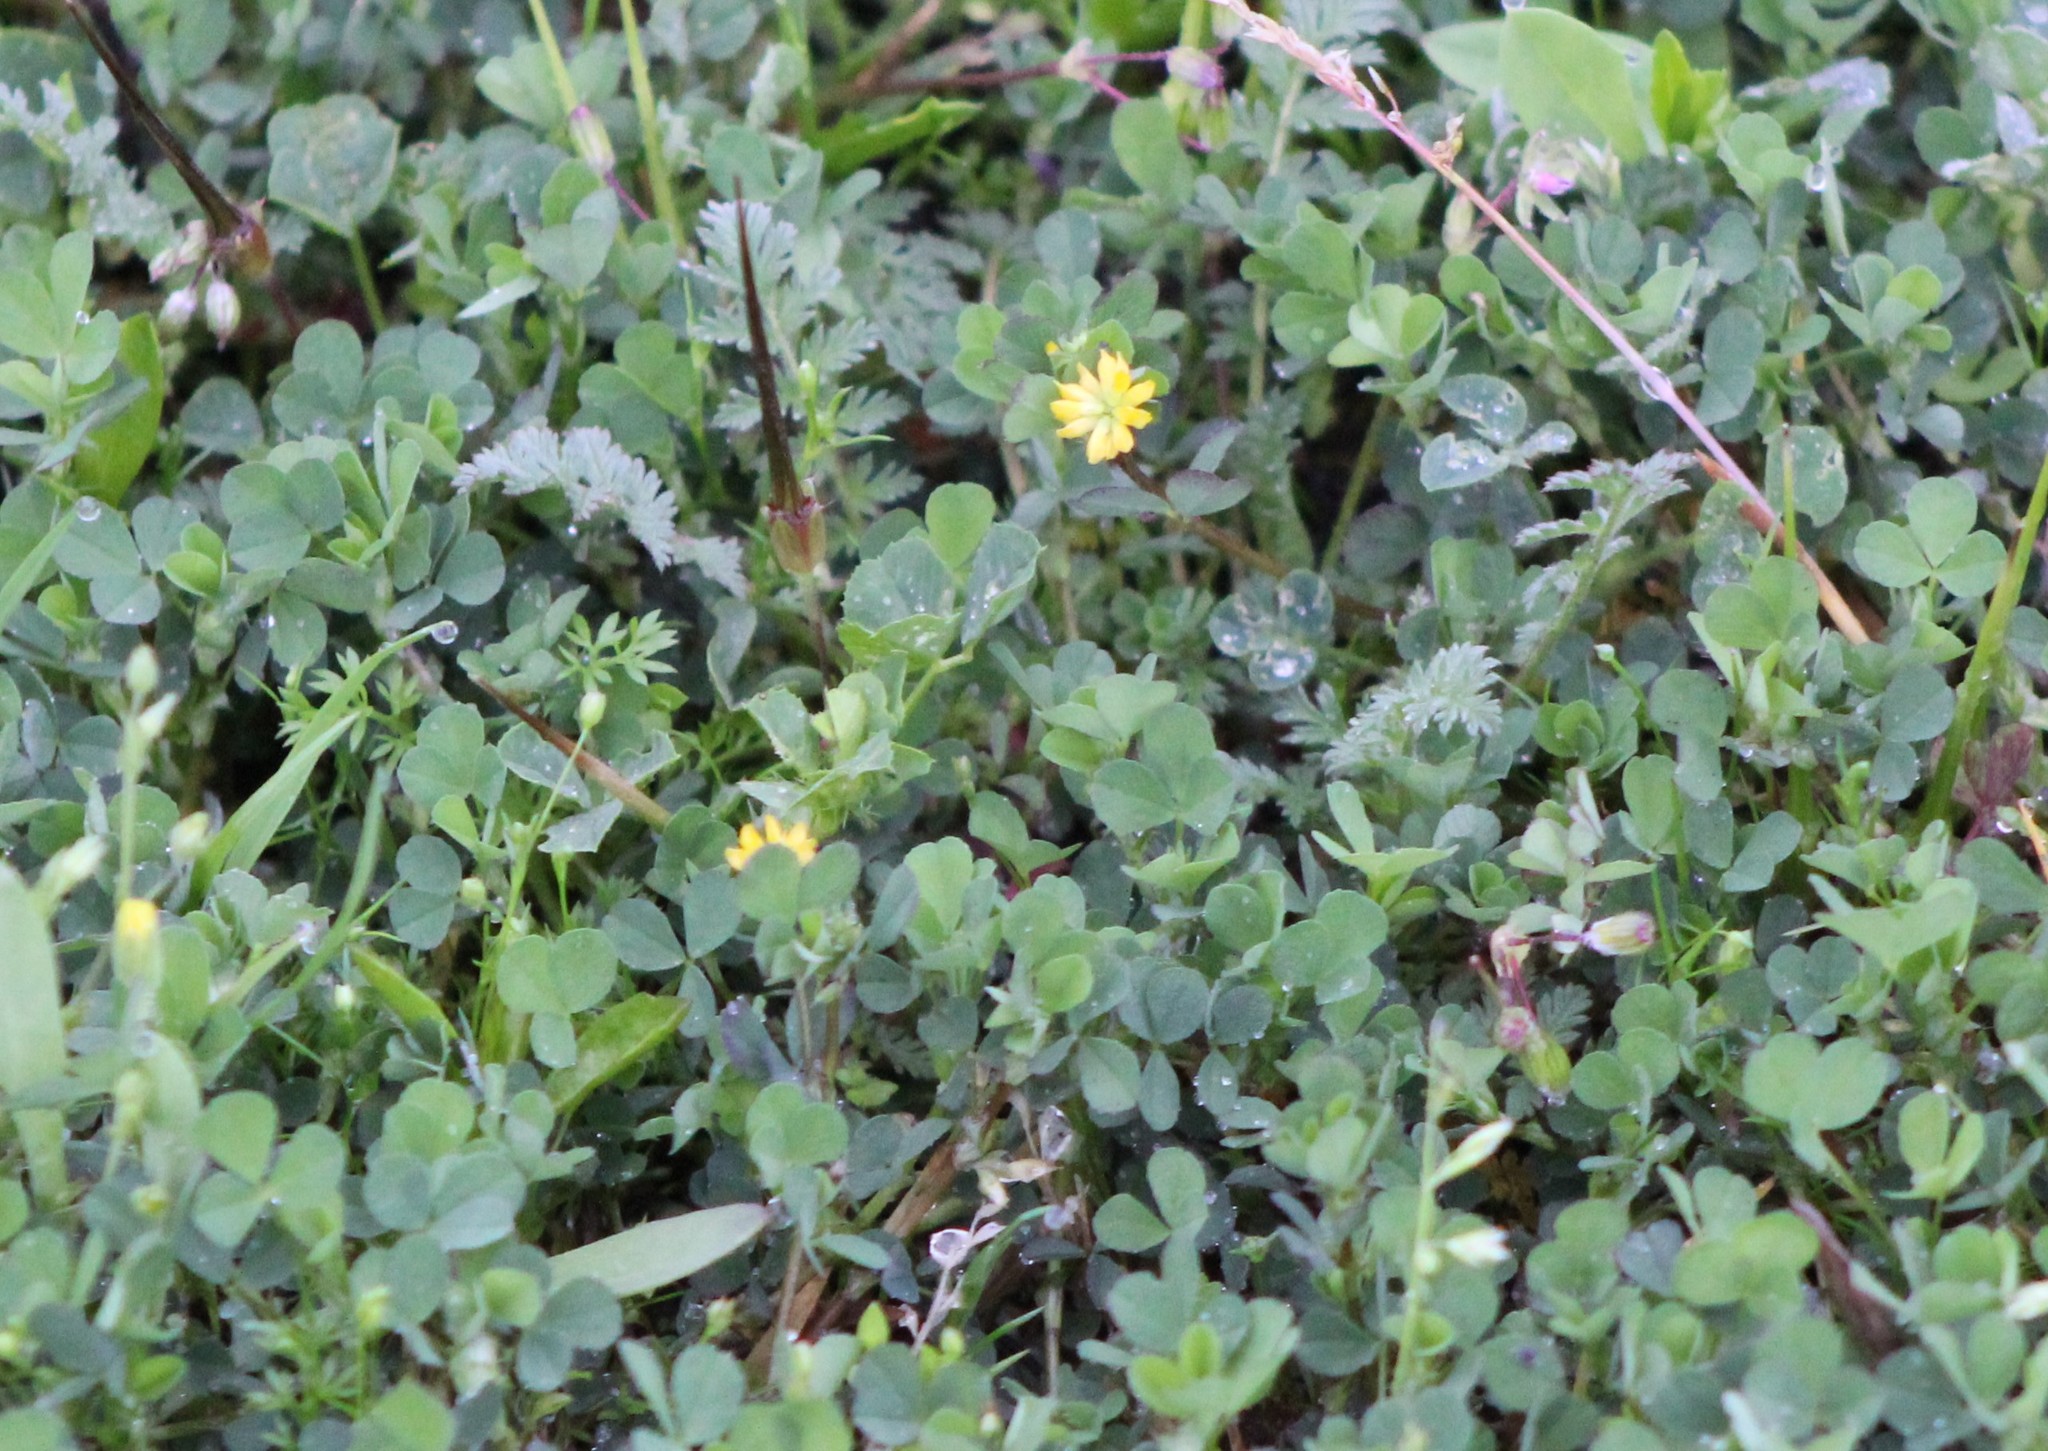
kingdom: Plantae
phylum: Tracheophyta
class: Magnoliopsida
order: Fabales
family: Fabaceae
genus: Trifolium
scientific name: Trifolium dubium
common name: Suckling clover
